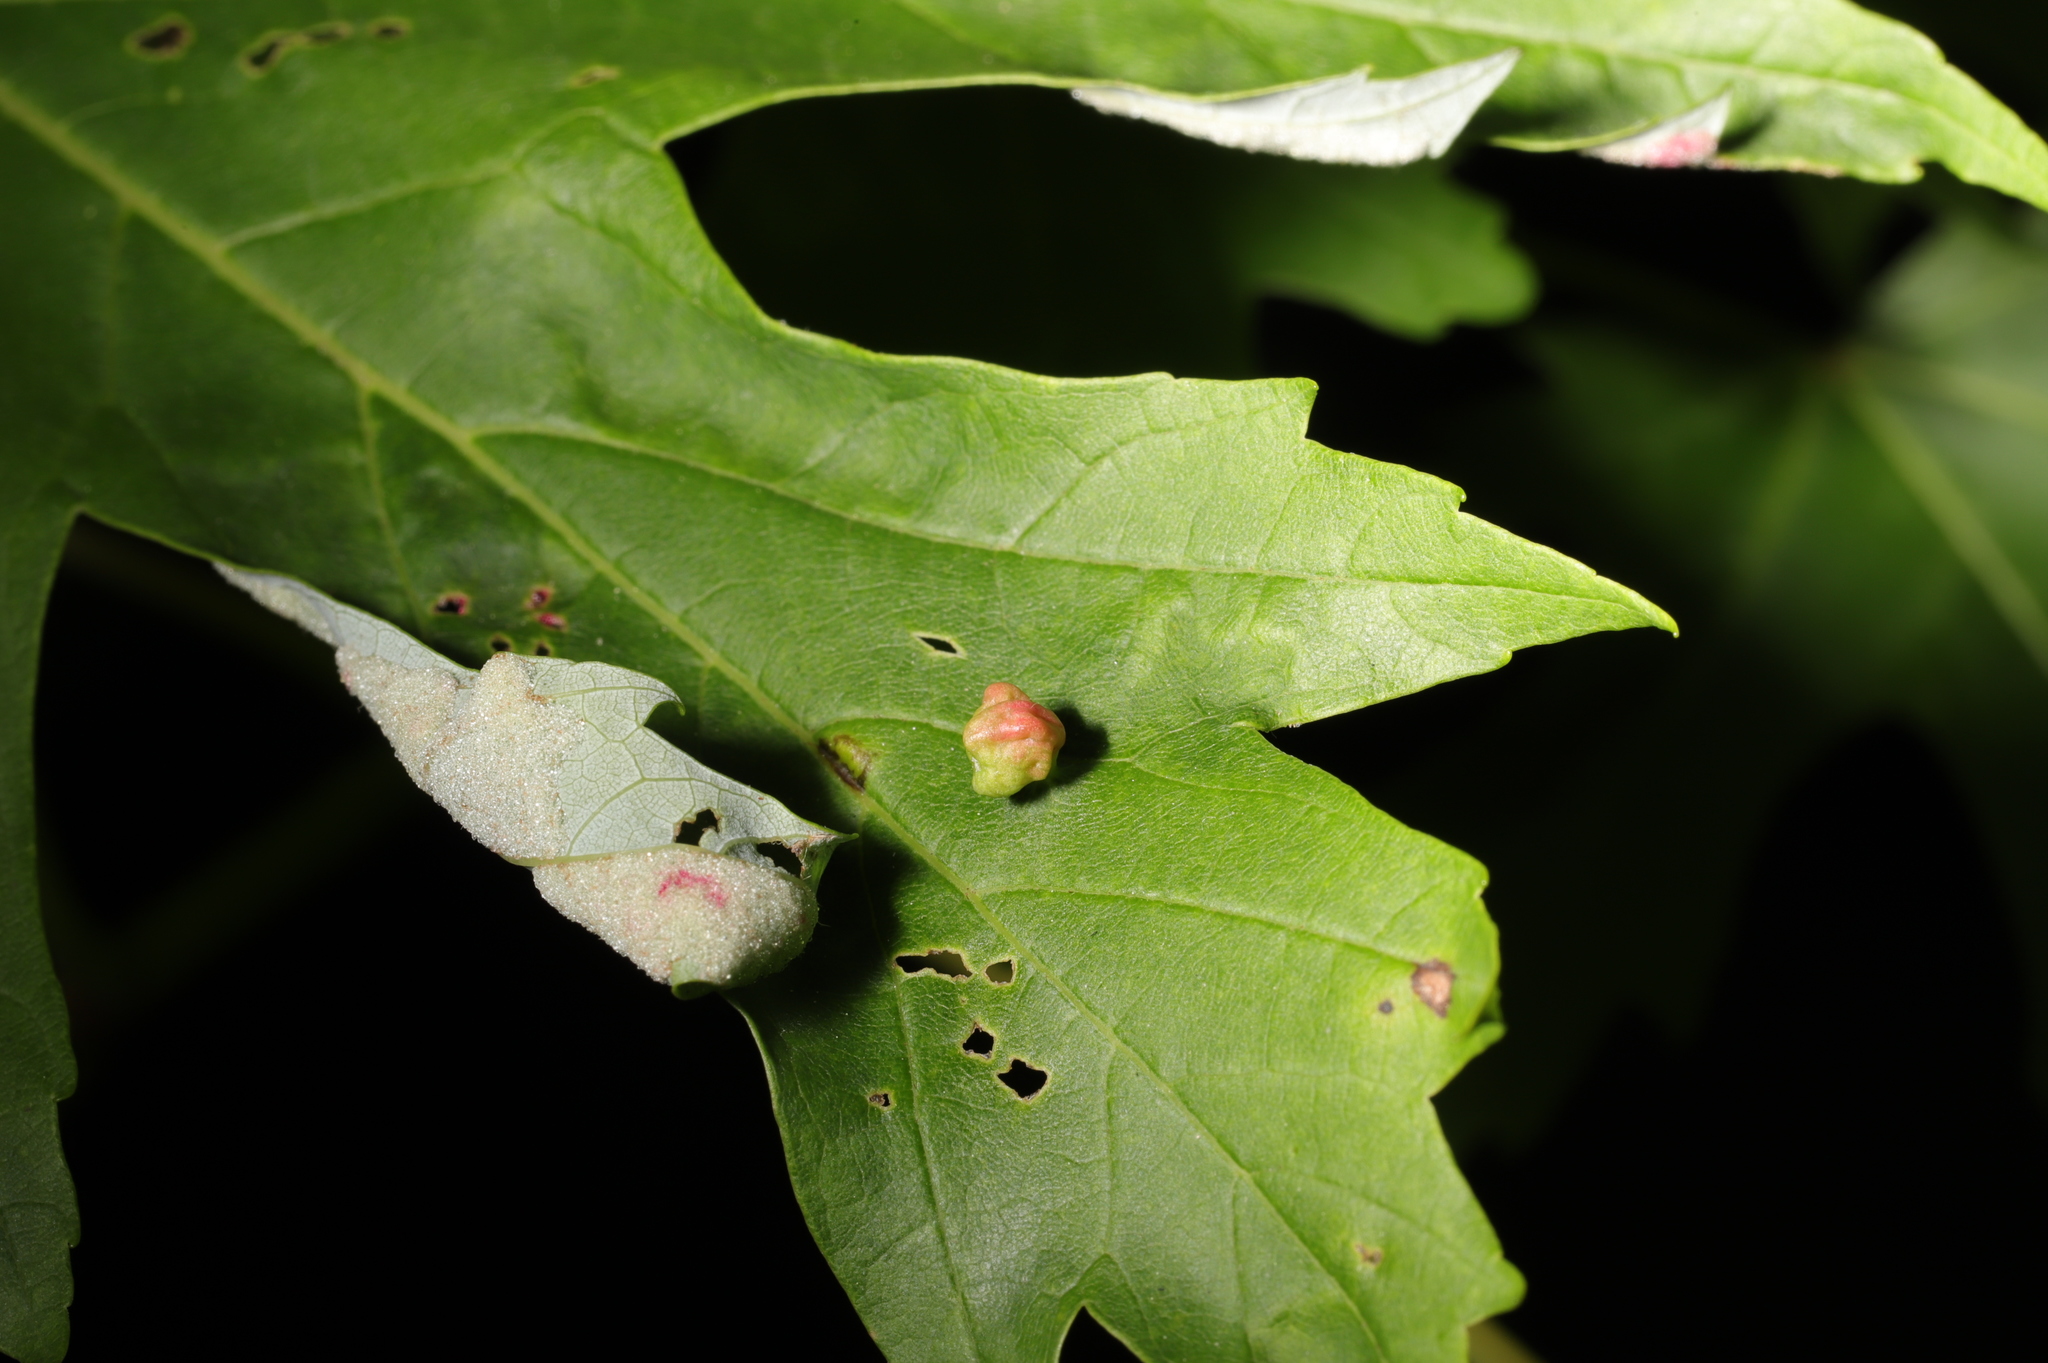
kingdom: Animalia
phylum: Arthropoda
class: Arachnida
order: Trombidiformes
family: Eriophyidae
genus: Vasates
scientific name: Vasates quadripedes
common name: Maple bladder gall mite
